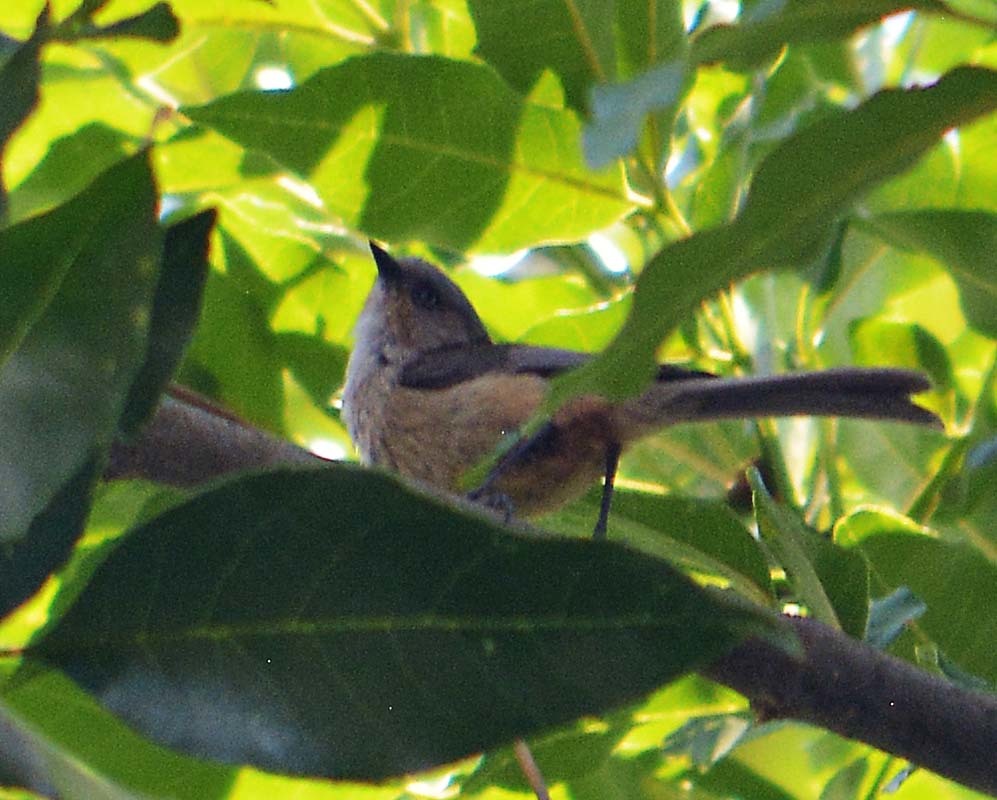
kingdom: Animalia
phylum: Chordata
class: Aves
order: Passeriformes
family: Aegithalidae
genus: Psaltriparus
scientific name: Psaltriparus minimus
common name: American bushtit
